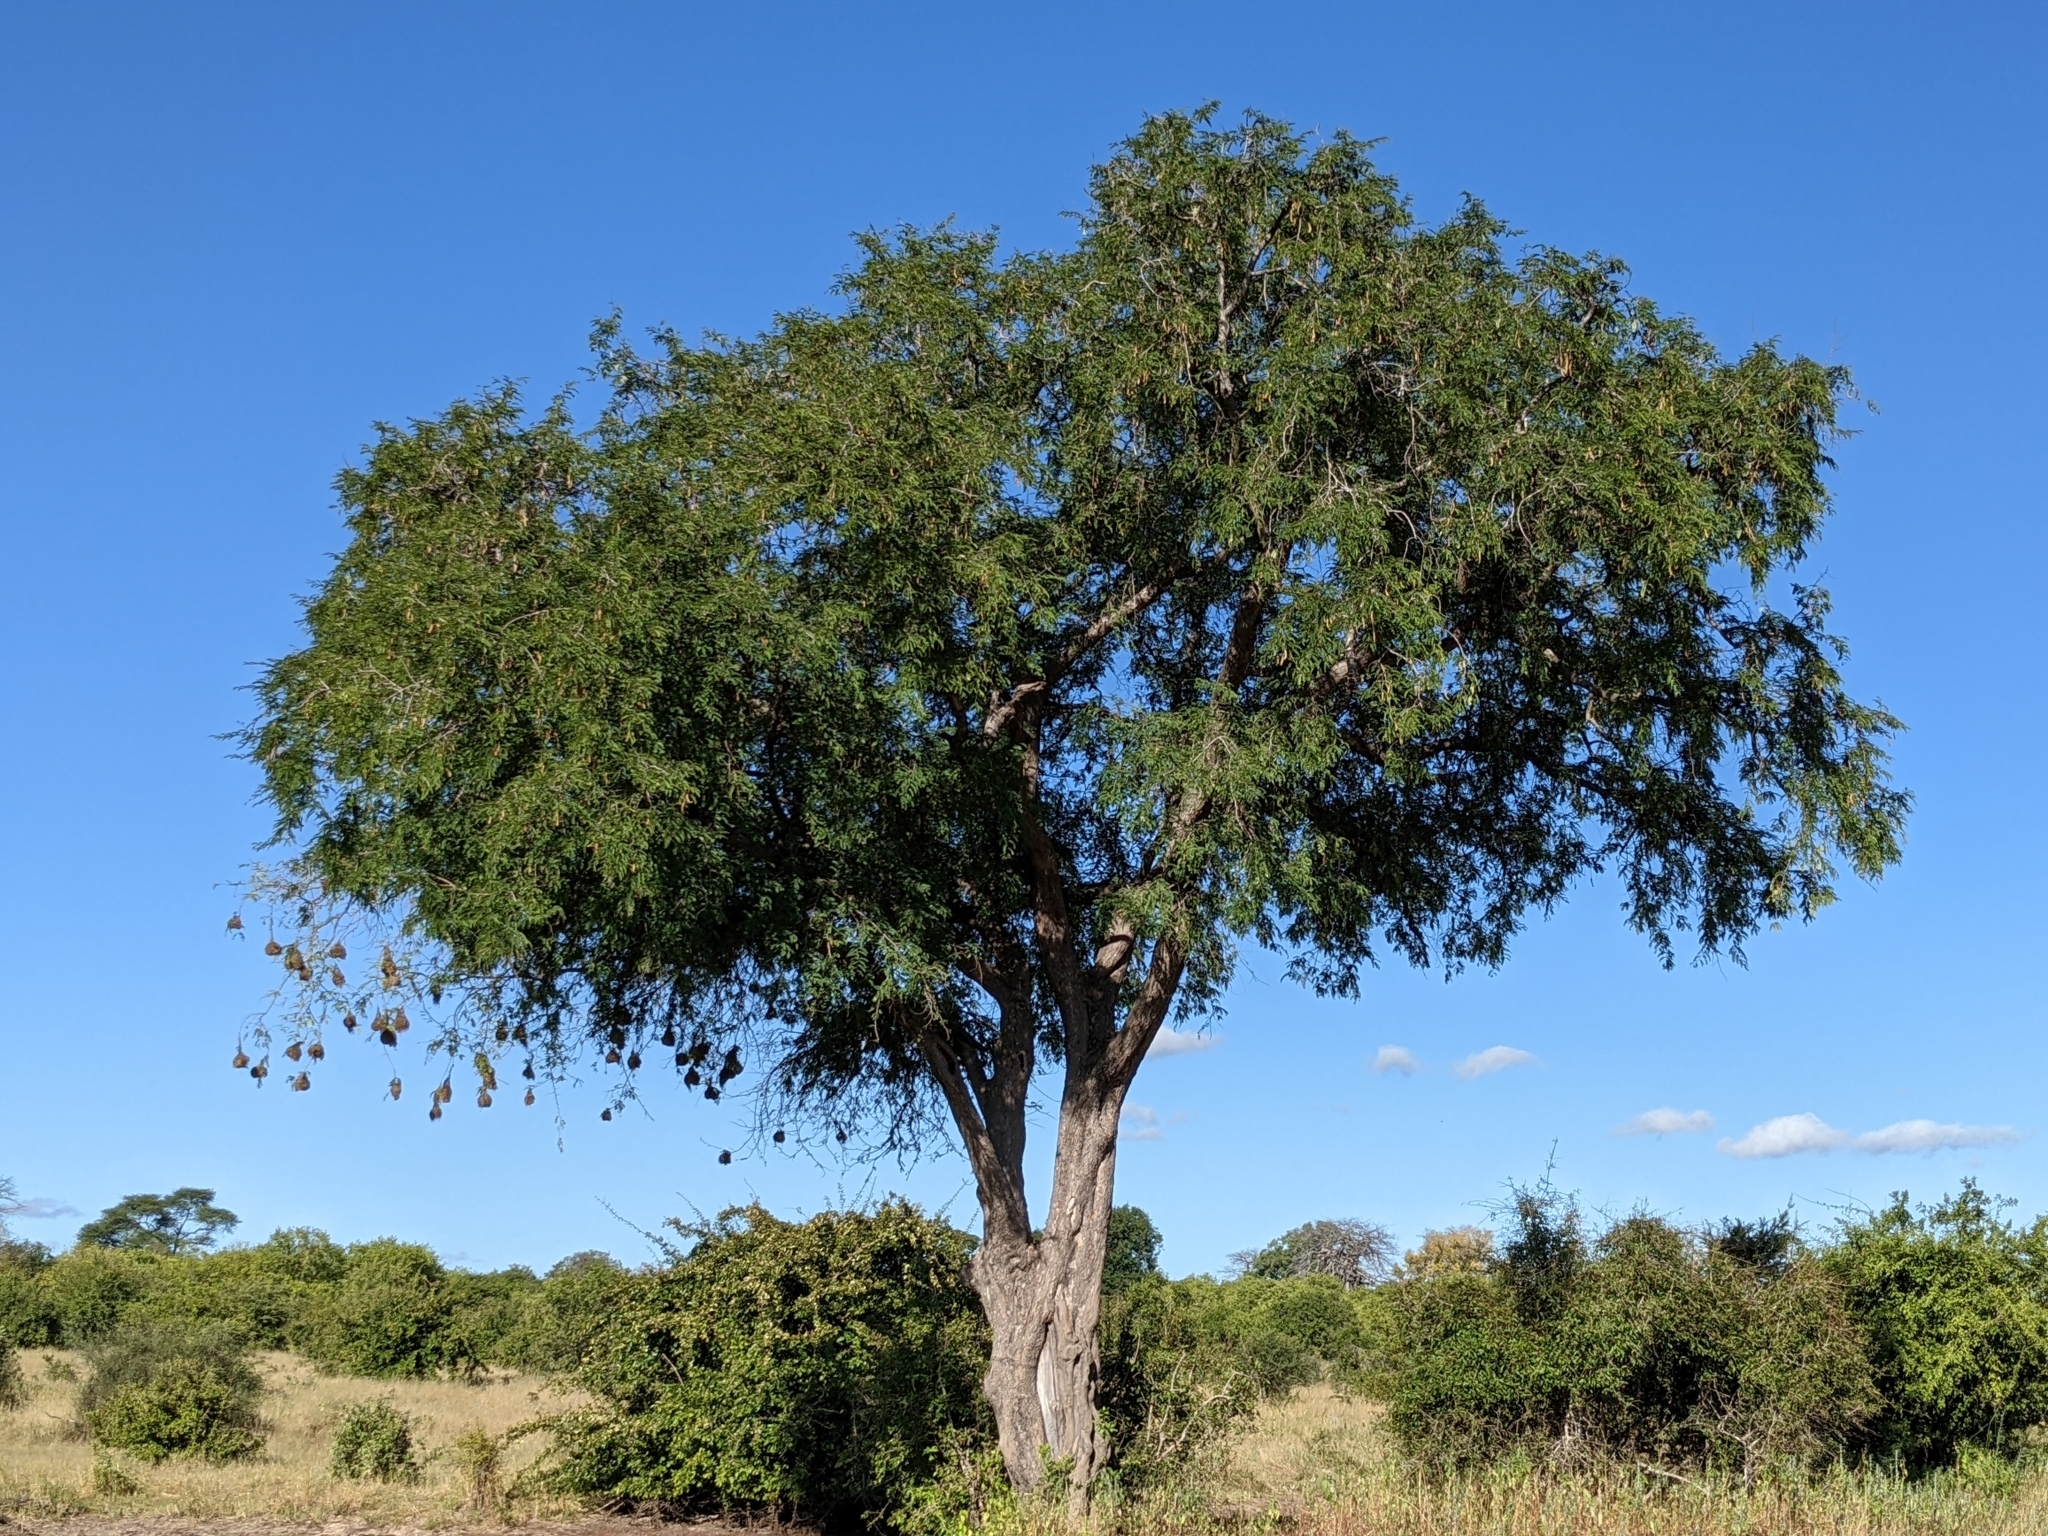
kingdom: Plantae
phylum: Tracheophyta
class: Magnoliopsida
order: Fabales
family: Fabaceae
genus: Tamarindus
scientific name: Tamarindus indica
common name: Tamarind
